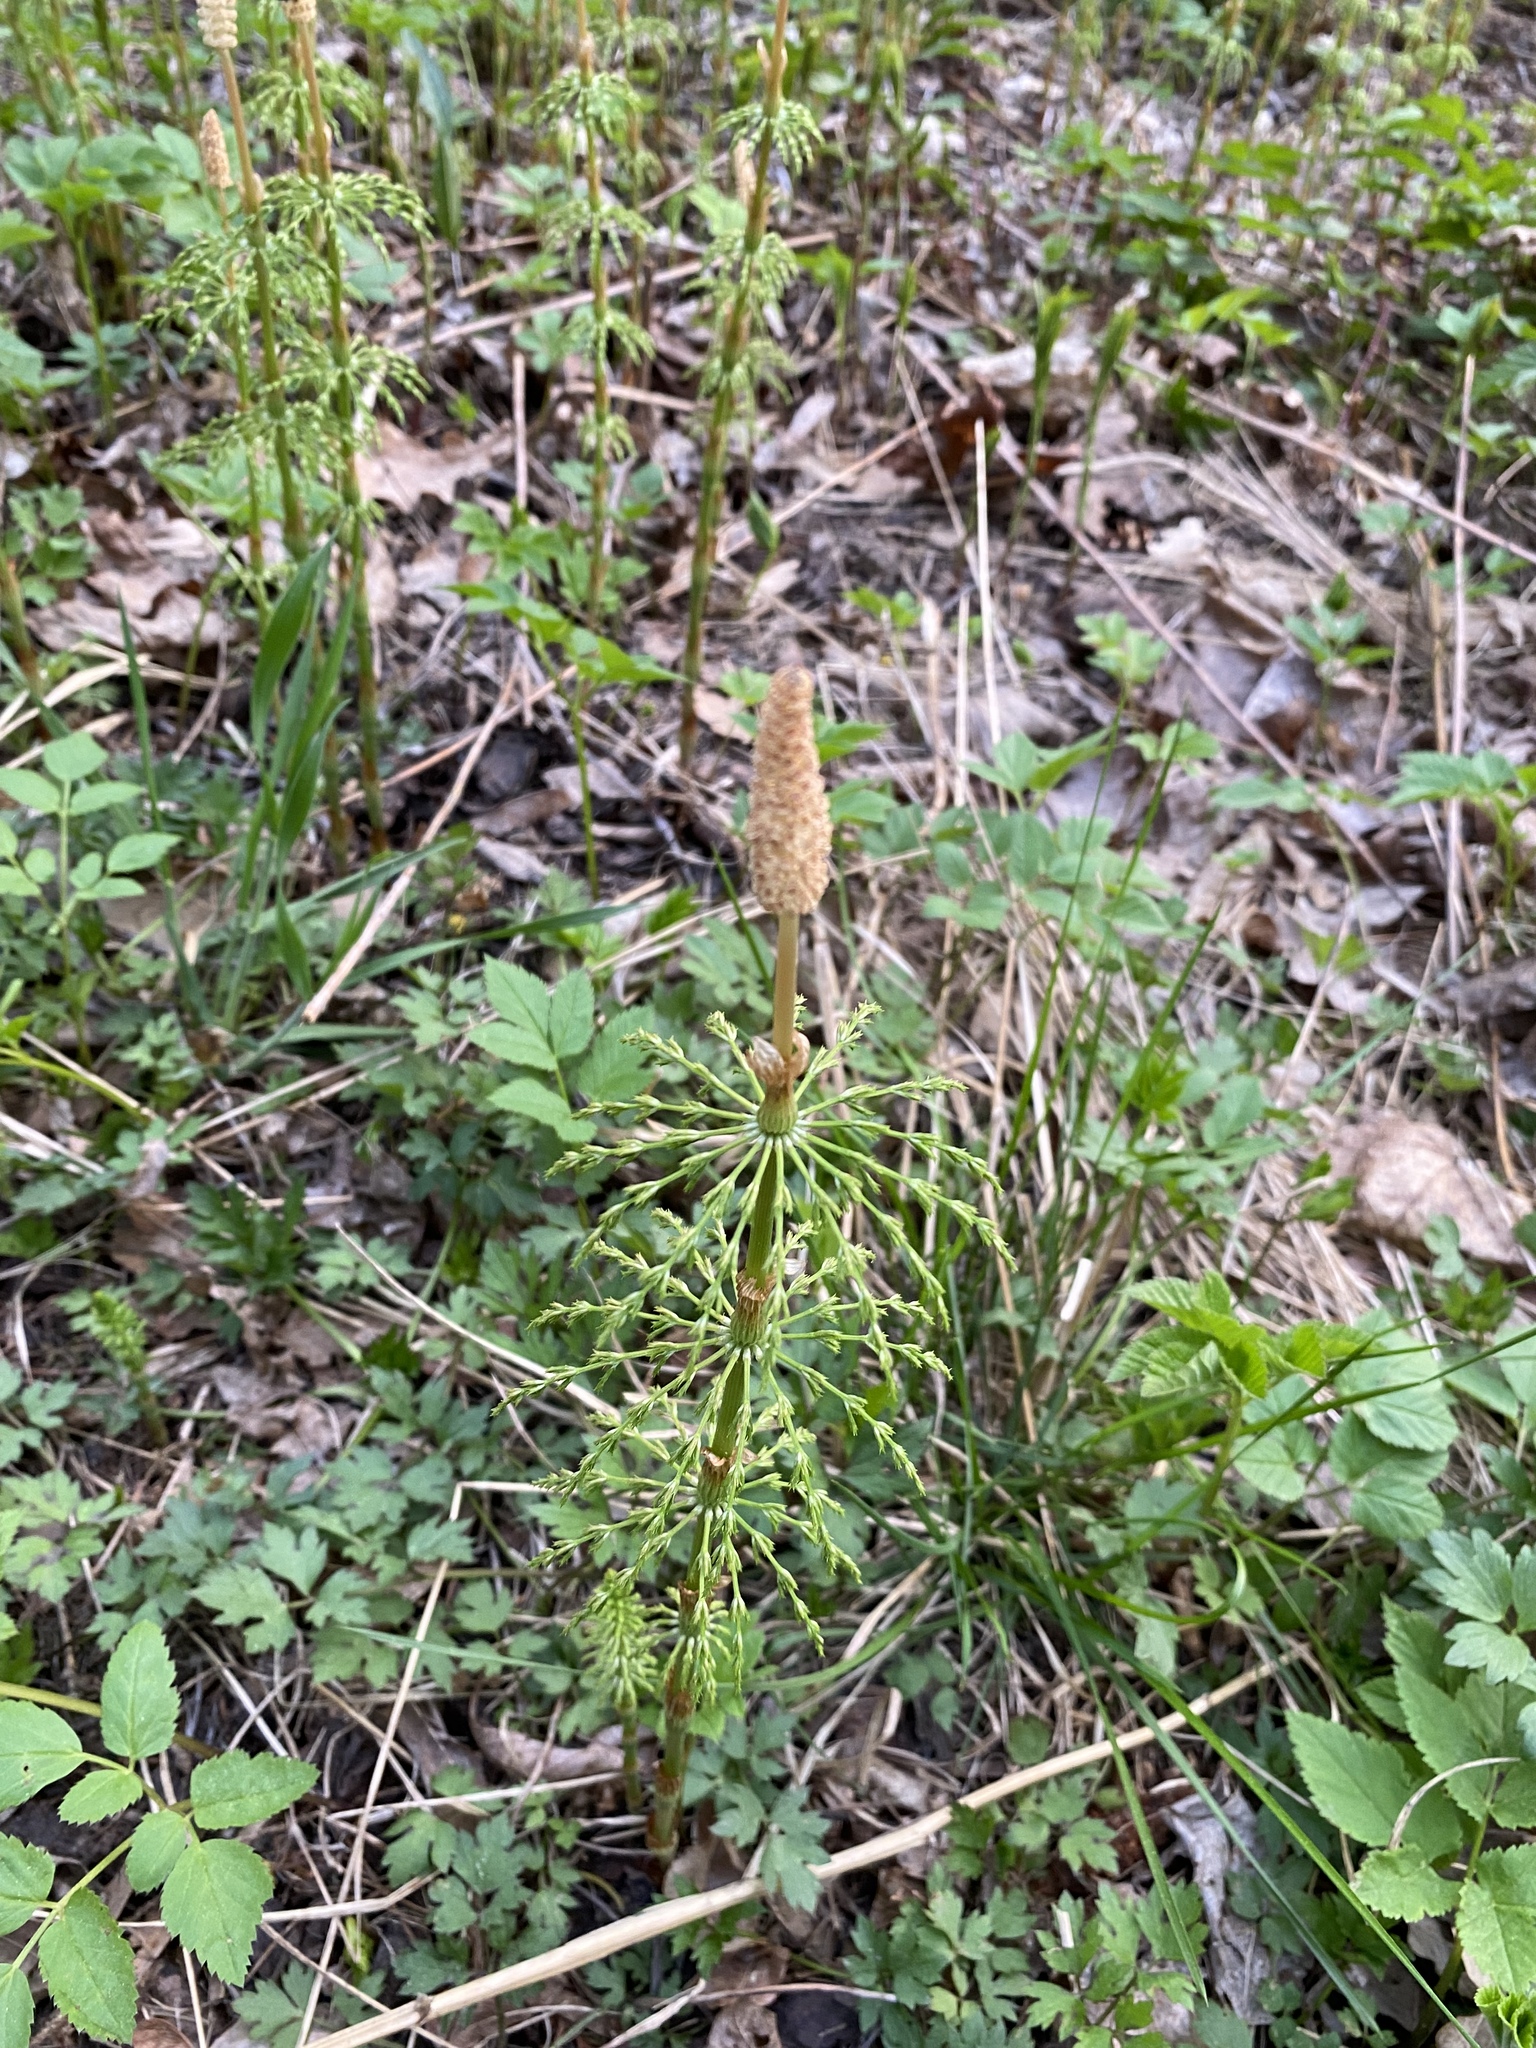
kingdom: Plantae
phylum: Tracheophyta
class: Polypodiopsida
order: Equisetales
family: Equisetaceae
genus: Equisetum
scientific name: Equisetum sylvaticum
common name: Wood horsetail
